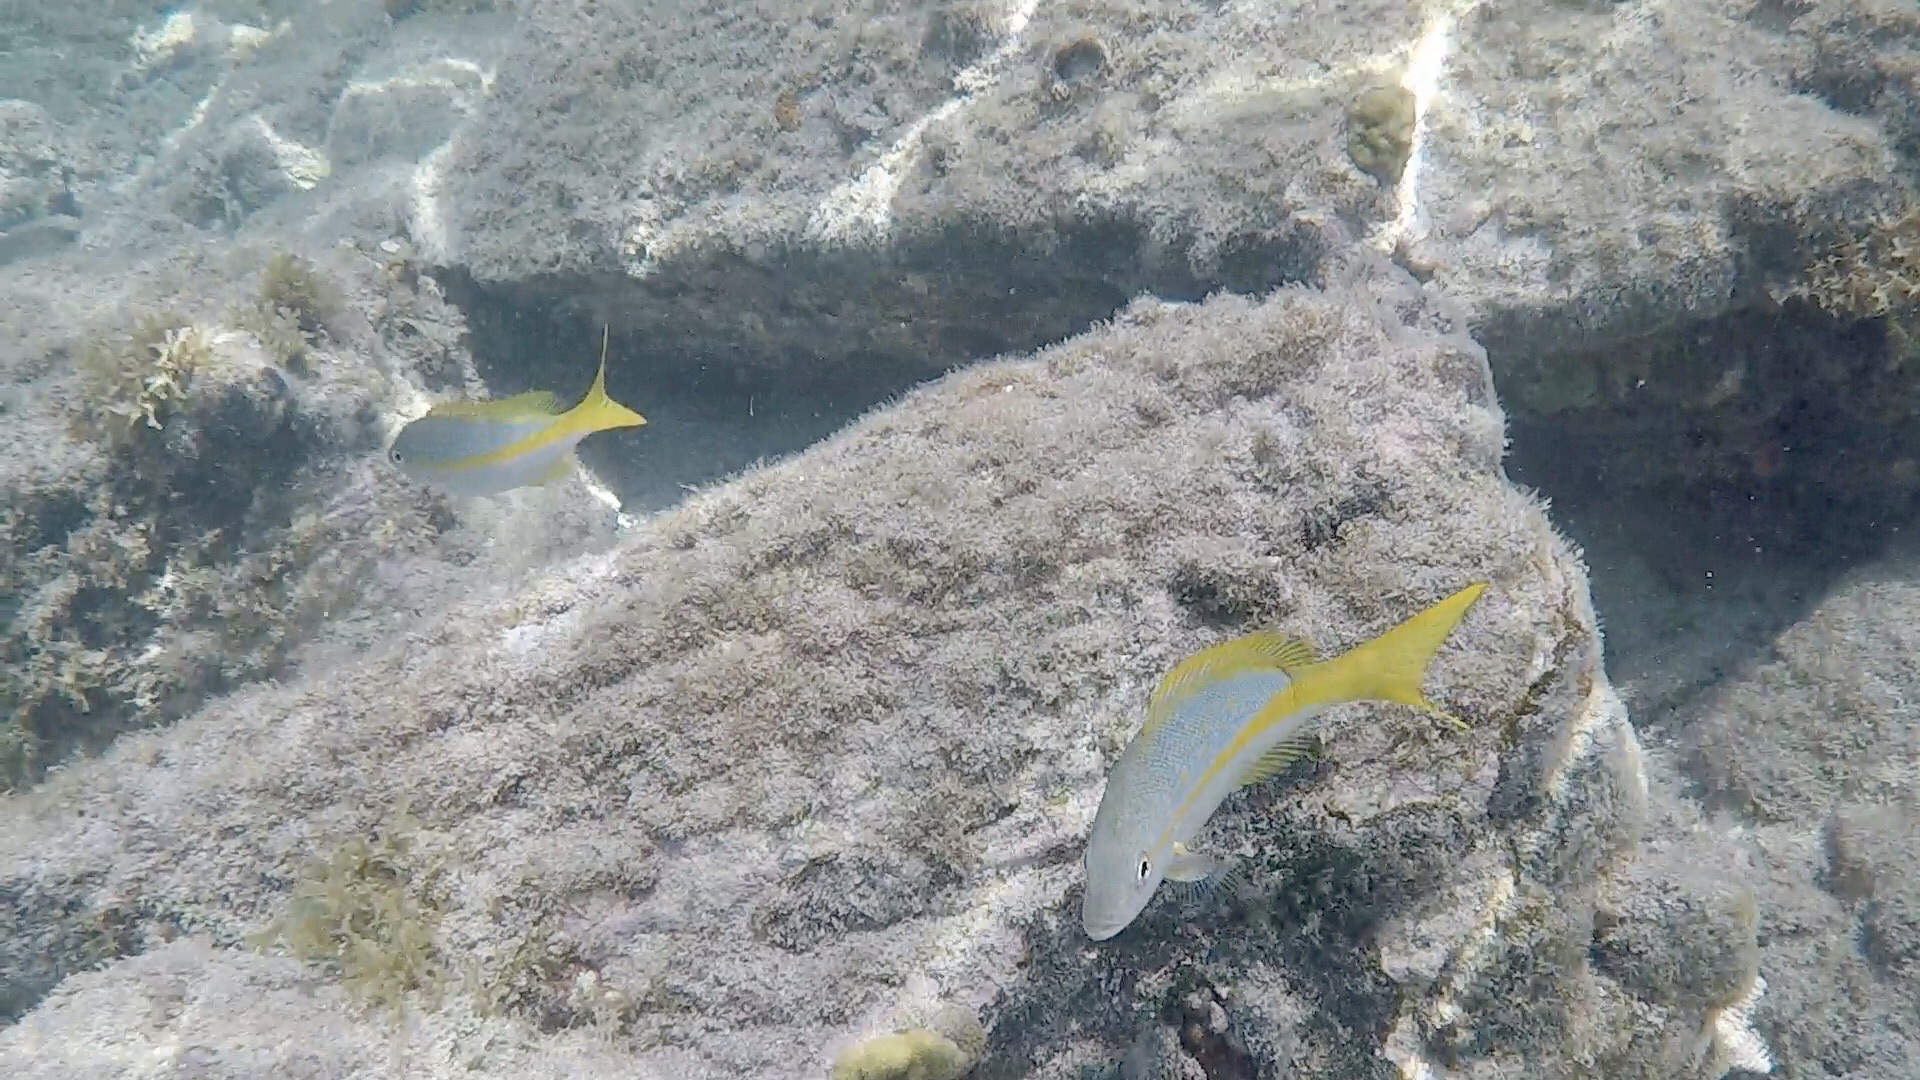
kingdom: Animalia
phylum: Chordata
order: Perciformes
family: Lutjanidae
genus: Ocyurus
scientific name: Ocyurus chrysurus
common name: Yellowtail snapper
